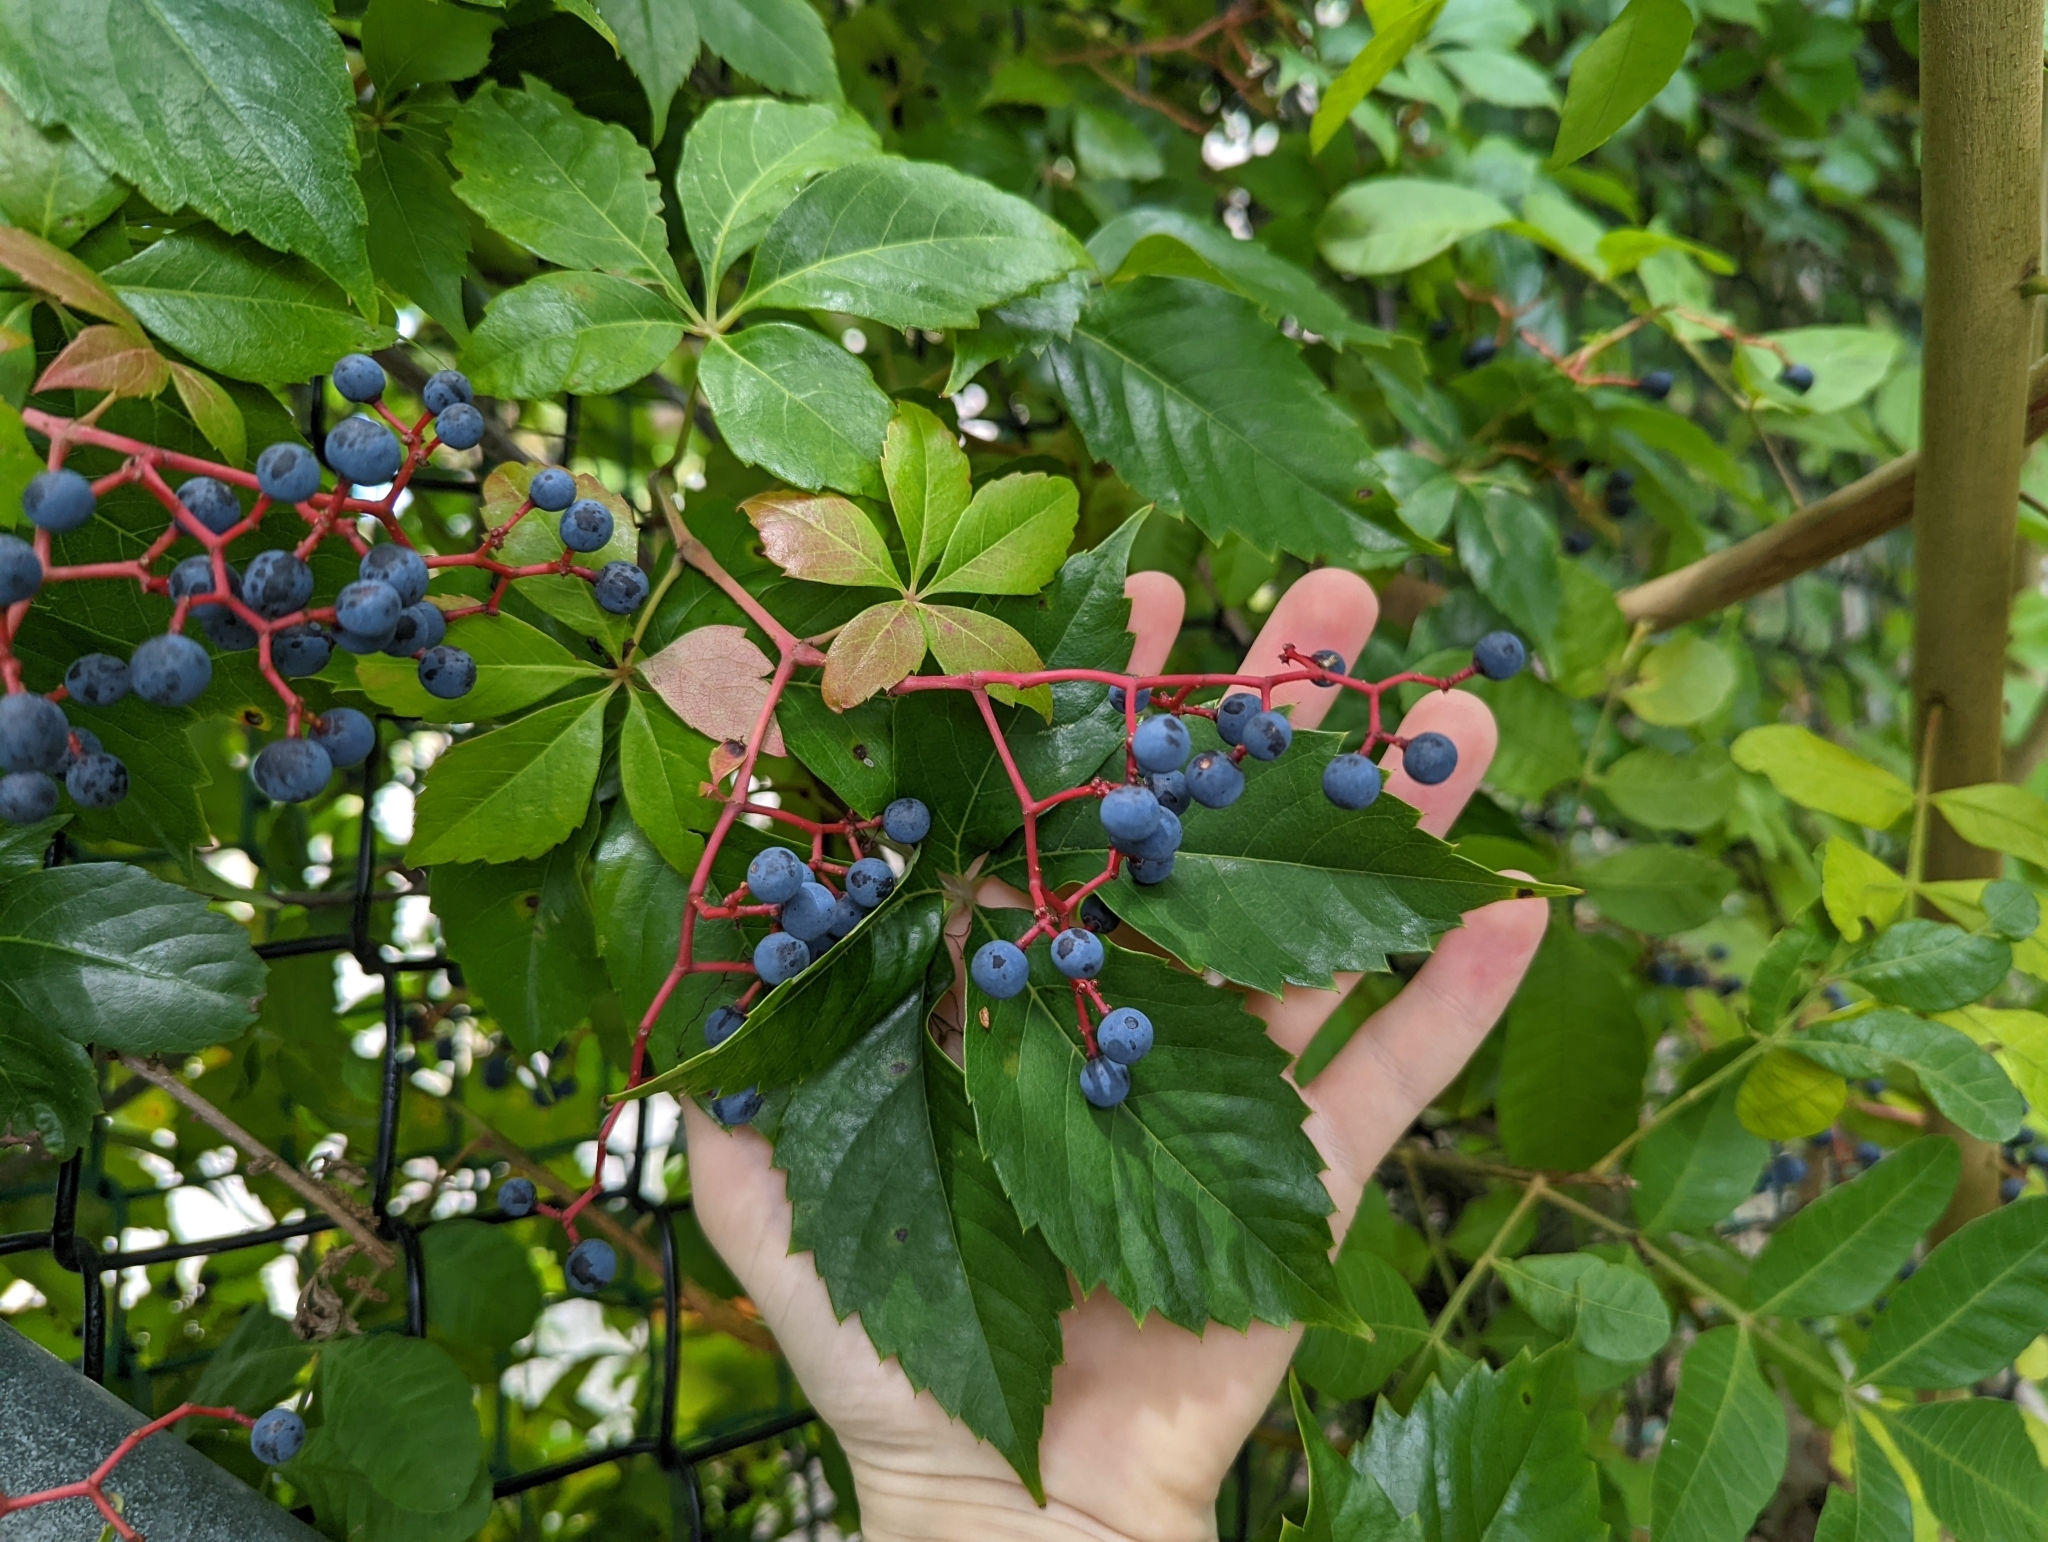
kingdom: Plantae
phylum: Tracheophyta
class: Magnoliopsida
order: Vitales
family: Vitaceae
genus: Parthenocissus
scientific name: Parthenocissus quinquefolia
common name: Virginia-creeper
